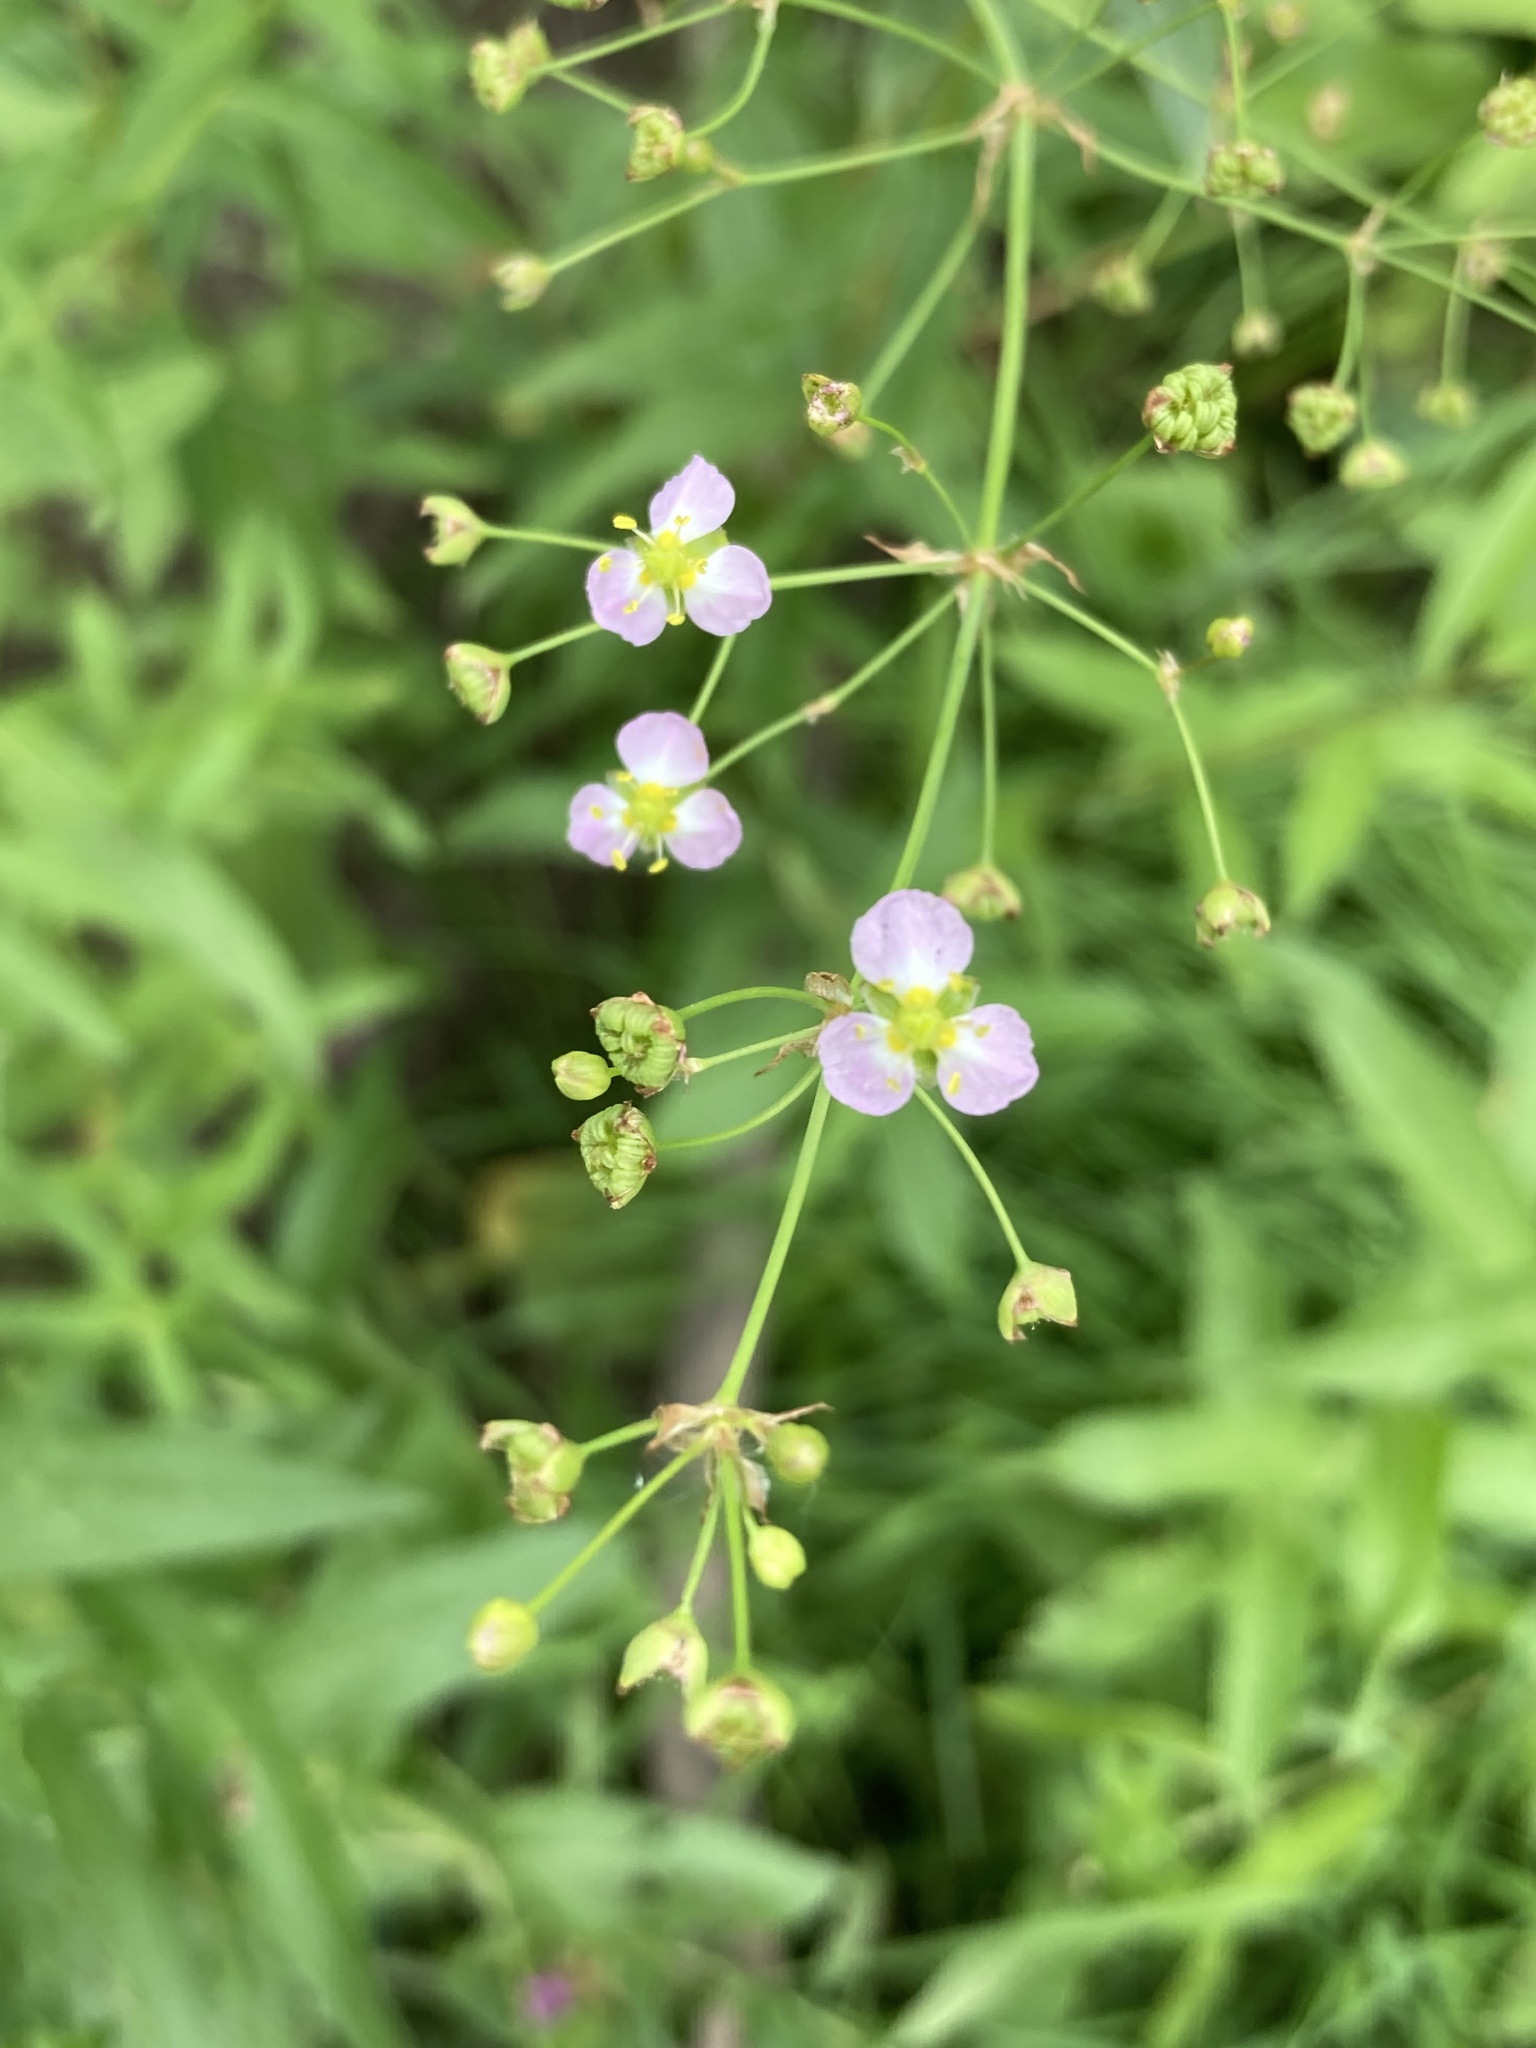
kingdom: Plantae
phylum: Tracheophyta
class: Liliopsida
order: Alismatales
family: Alismataceae
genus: Alisma
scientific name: Alisma plantago-aquatica
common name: Water-plantain
